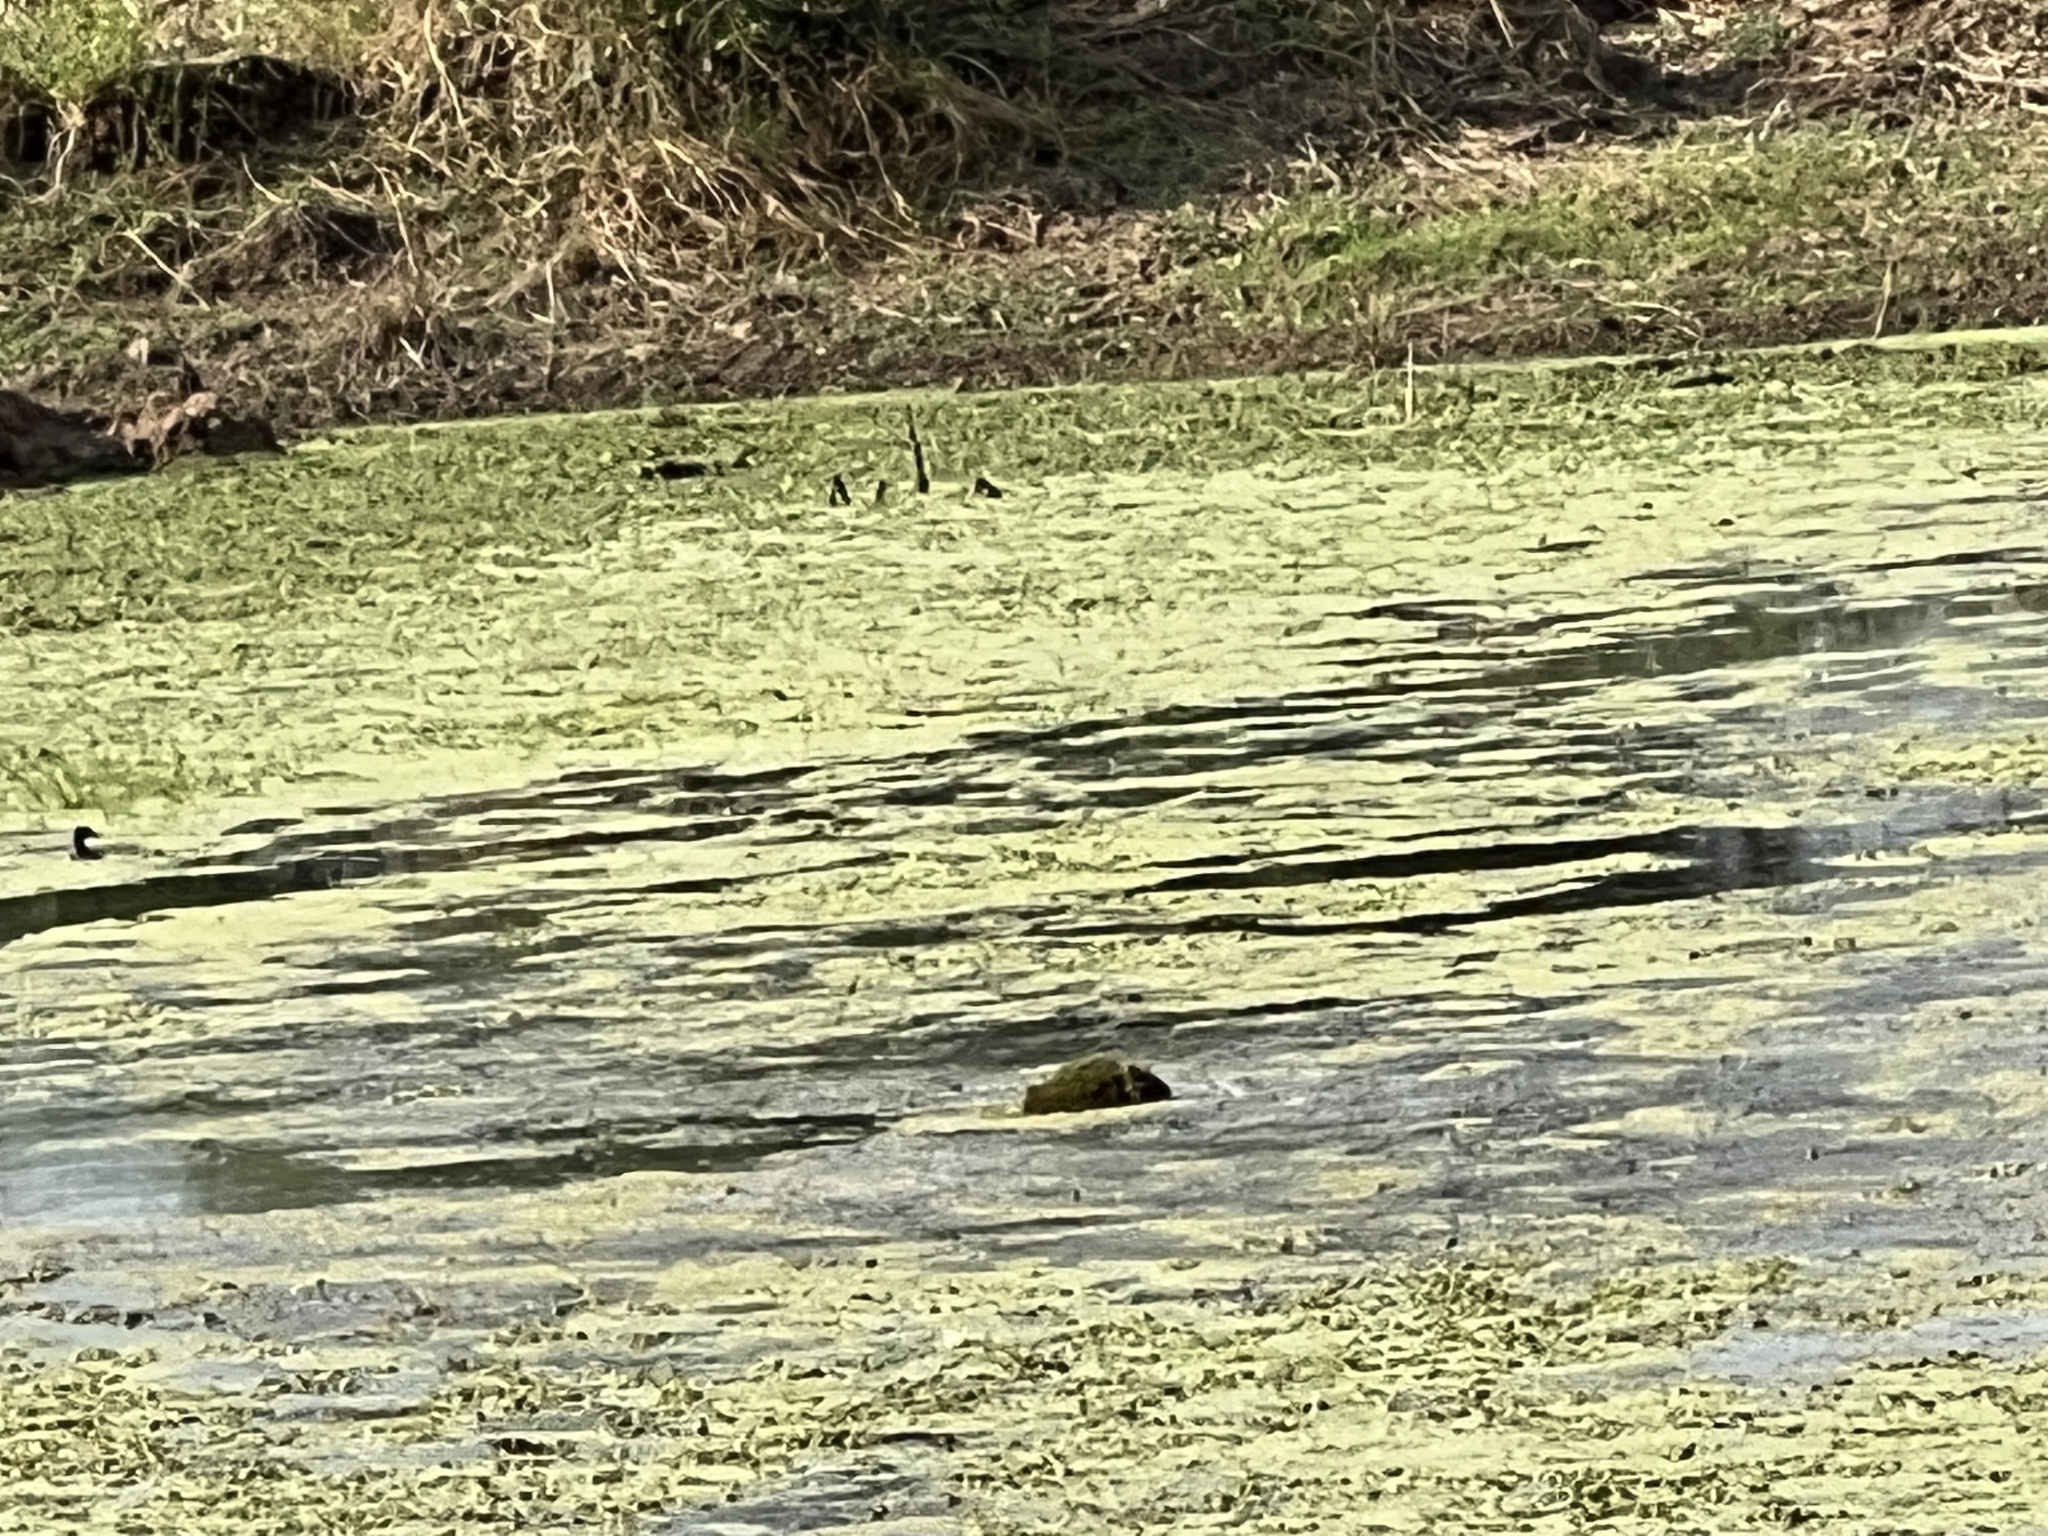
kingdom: Animalia
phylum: Chordata
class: Mammalia
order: Rodentia
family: Caviidae
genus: Hydrochoerus
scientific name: Hydrochoerus hydrochaeris
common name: Capybara
